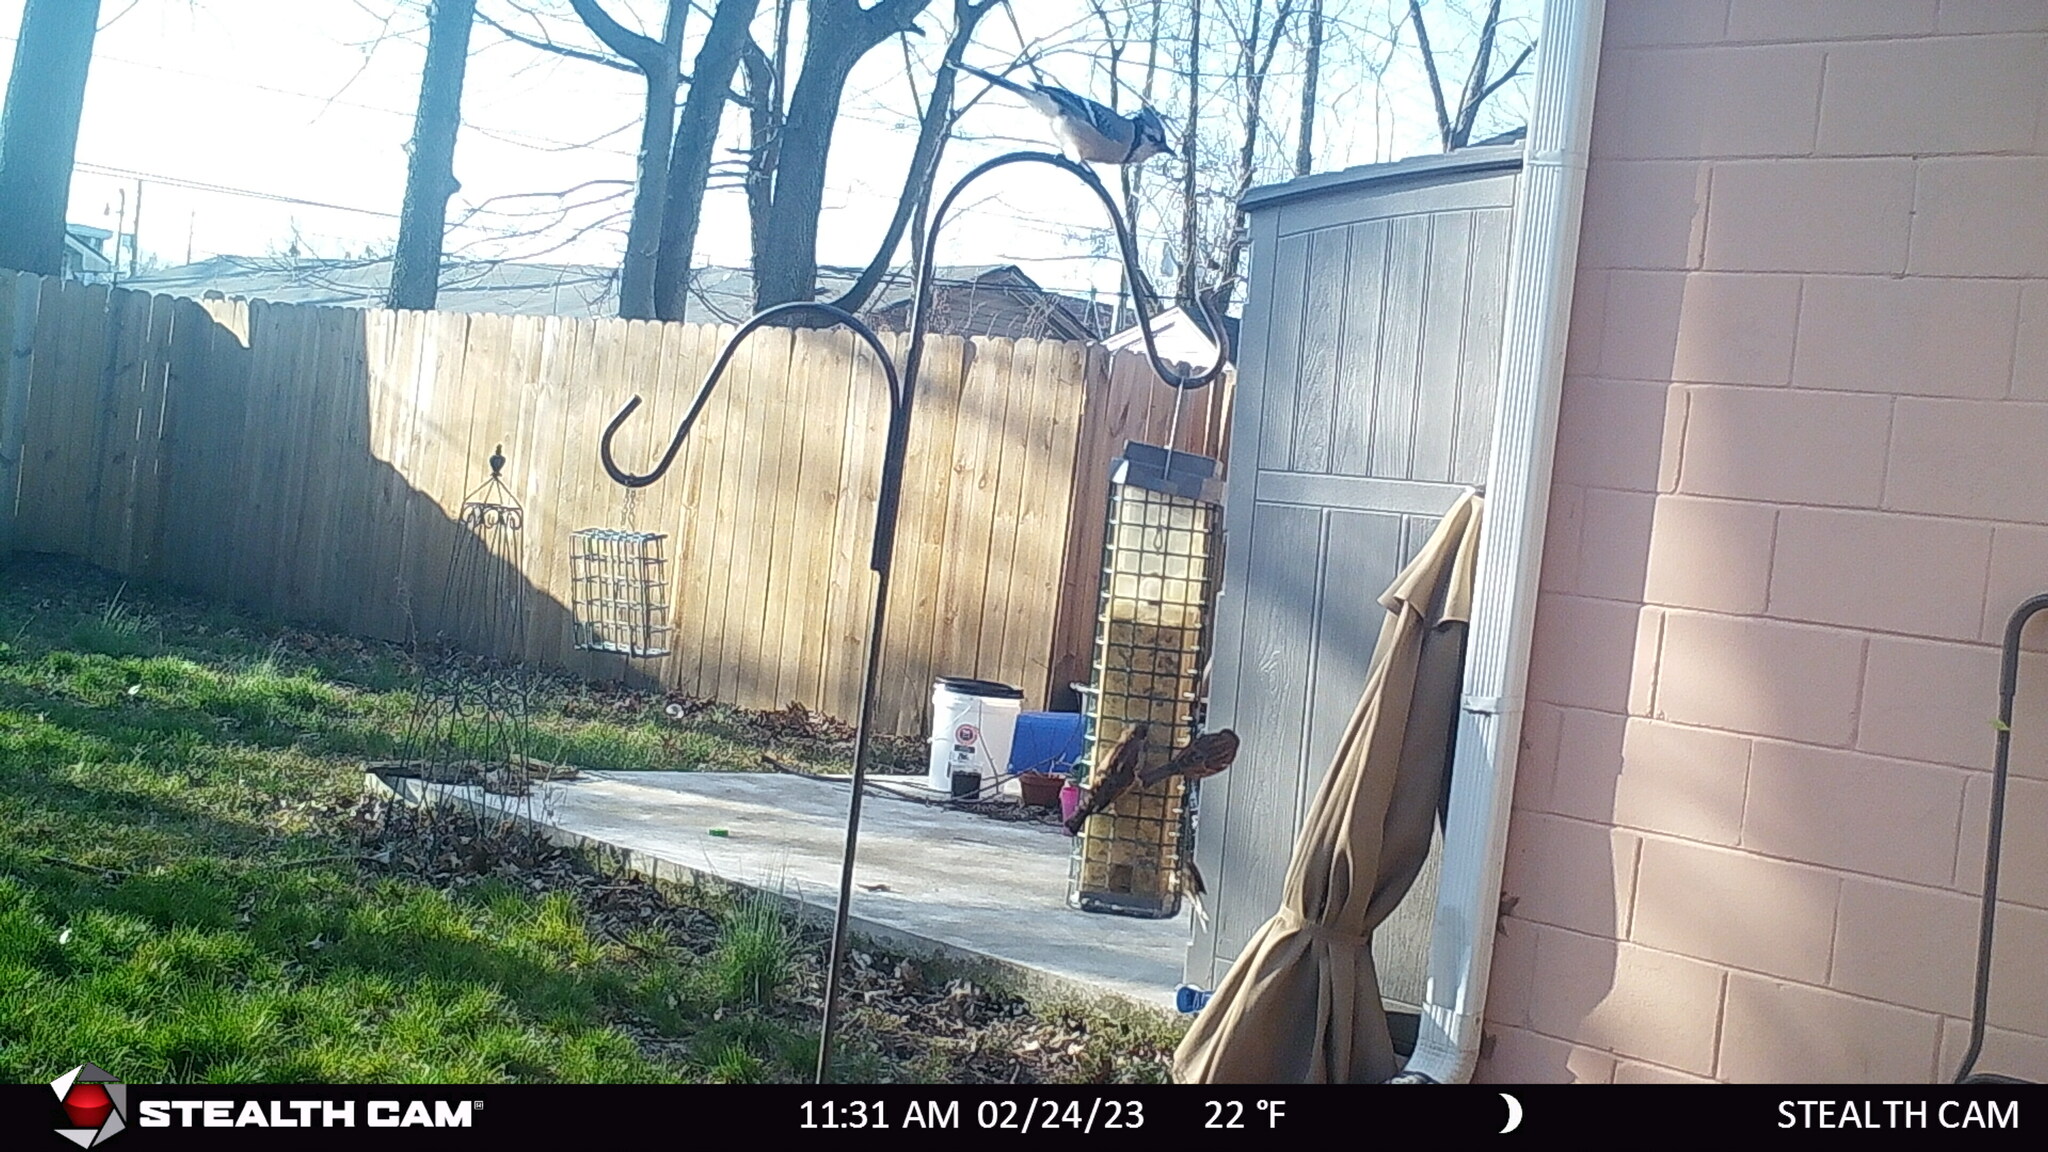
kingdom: Animalia
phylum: Chordata
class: Aves
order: Passeriformes
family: Passeridae
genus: Passer
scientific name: Passer domesticus
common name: House sparrow
